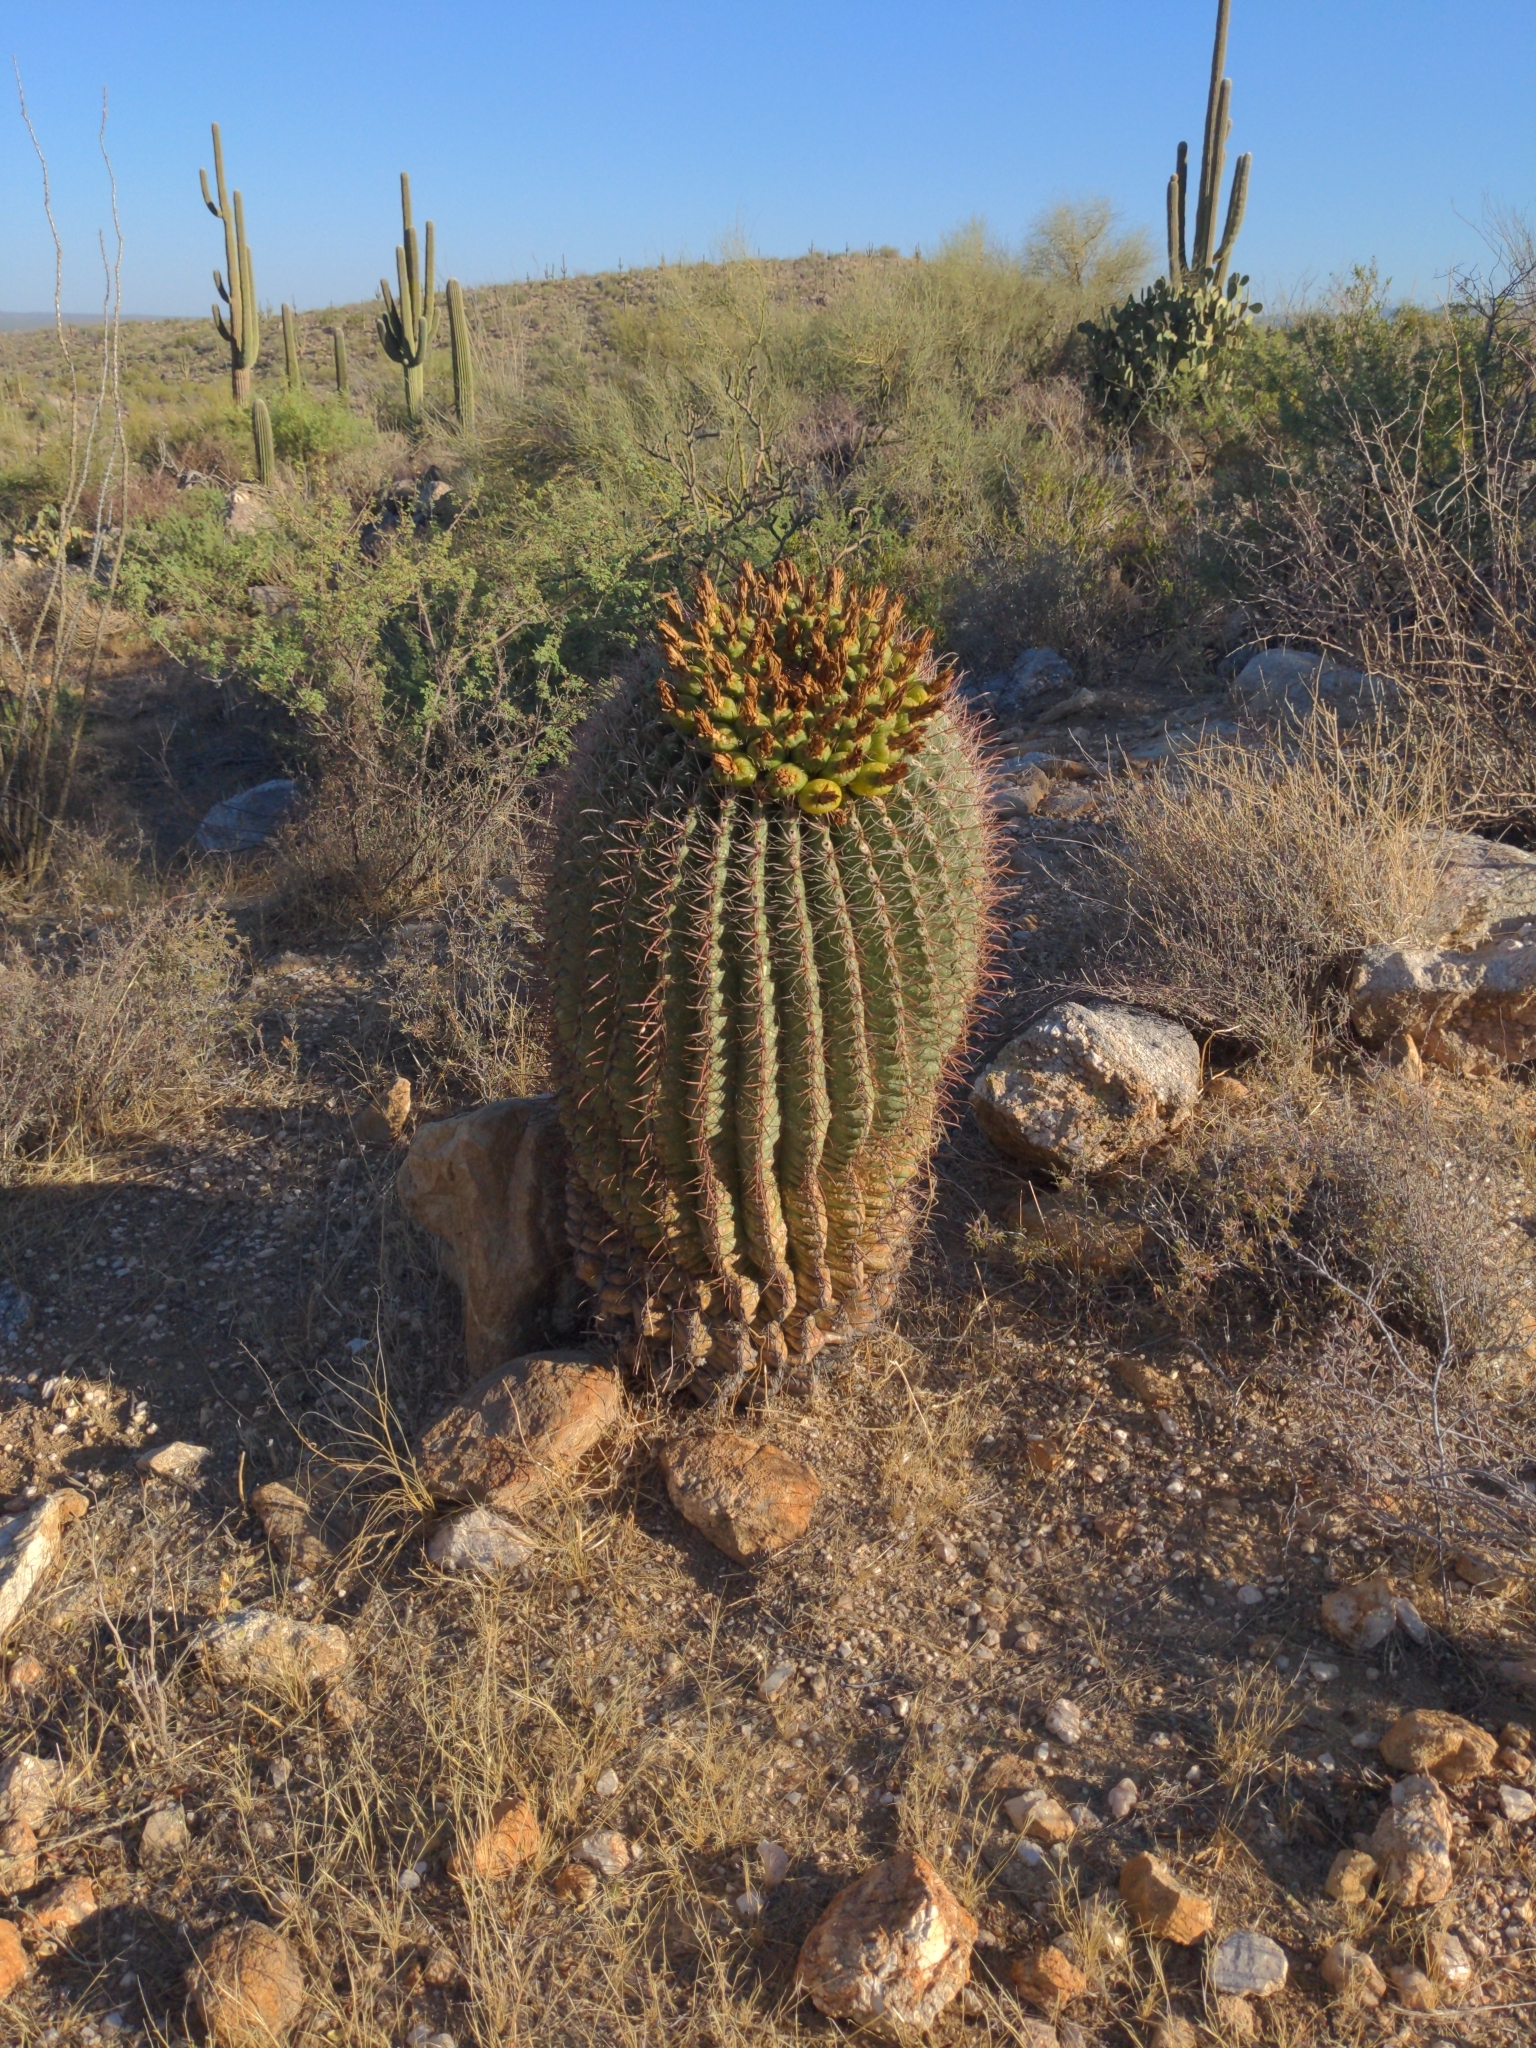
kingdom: Plantae
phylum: Tracheophyta
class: Magnoliopsida
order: Caryophyllales
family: Cactaceae
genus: Ferocactus
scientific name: Ferocactus wislizeni
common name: Candy barrel cactus
